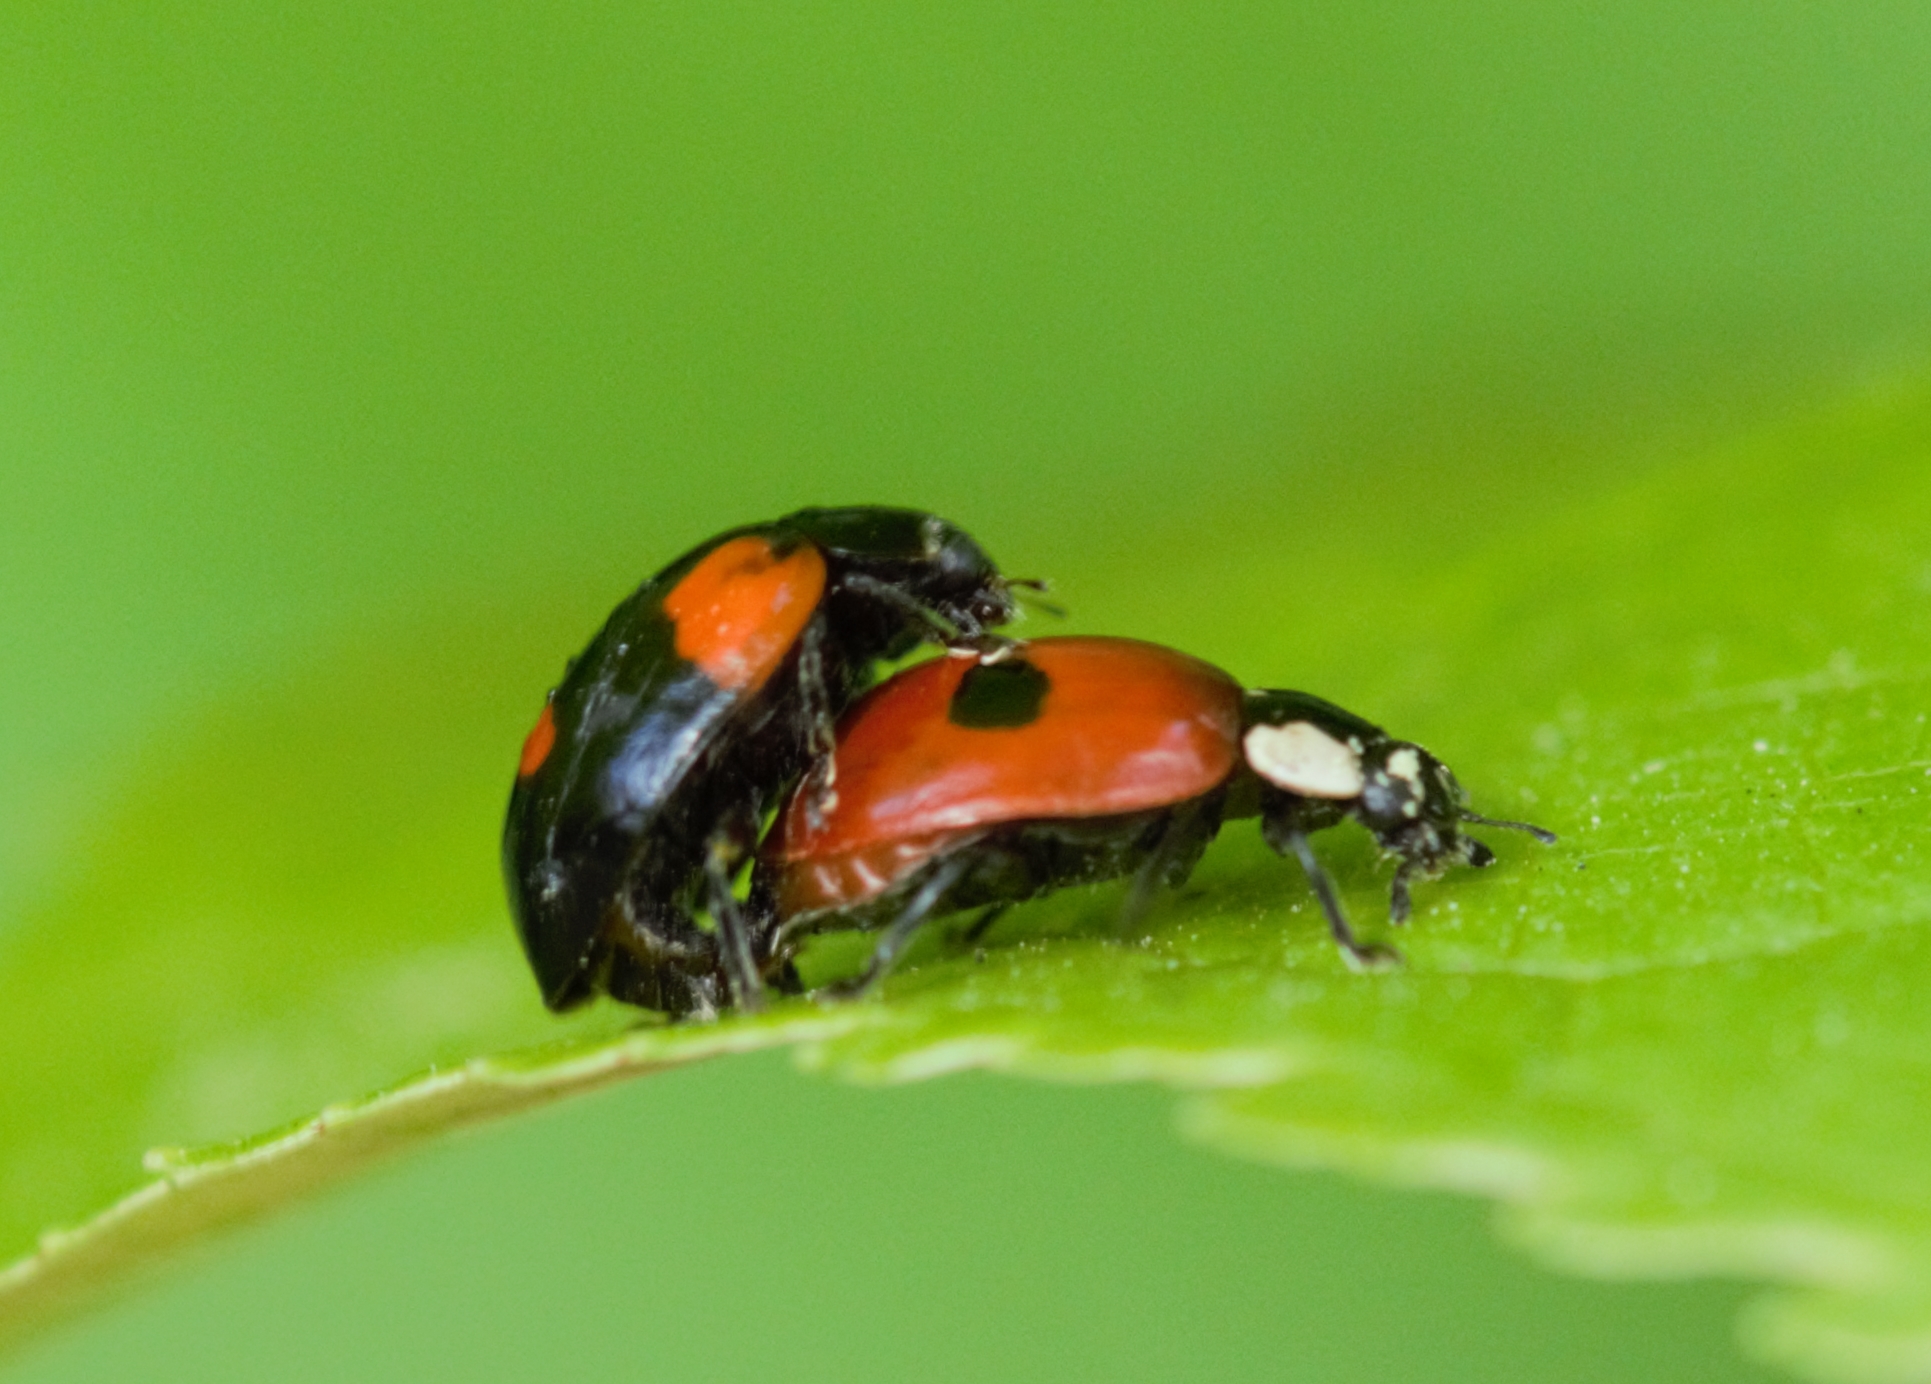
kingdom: Animalia
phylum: Arthropoda
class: Insecta
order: Coleoptera
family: Coccinellidae
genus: Adalia
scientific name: Adalia bipunctata
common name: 2-spot ladybird
